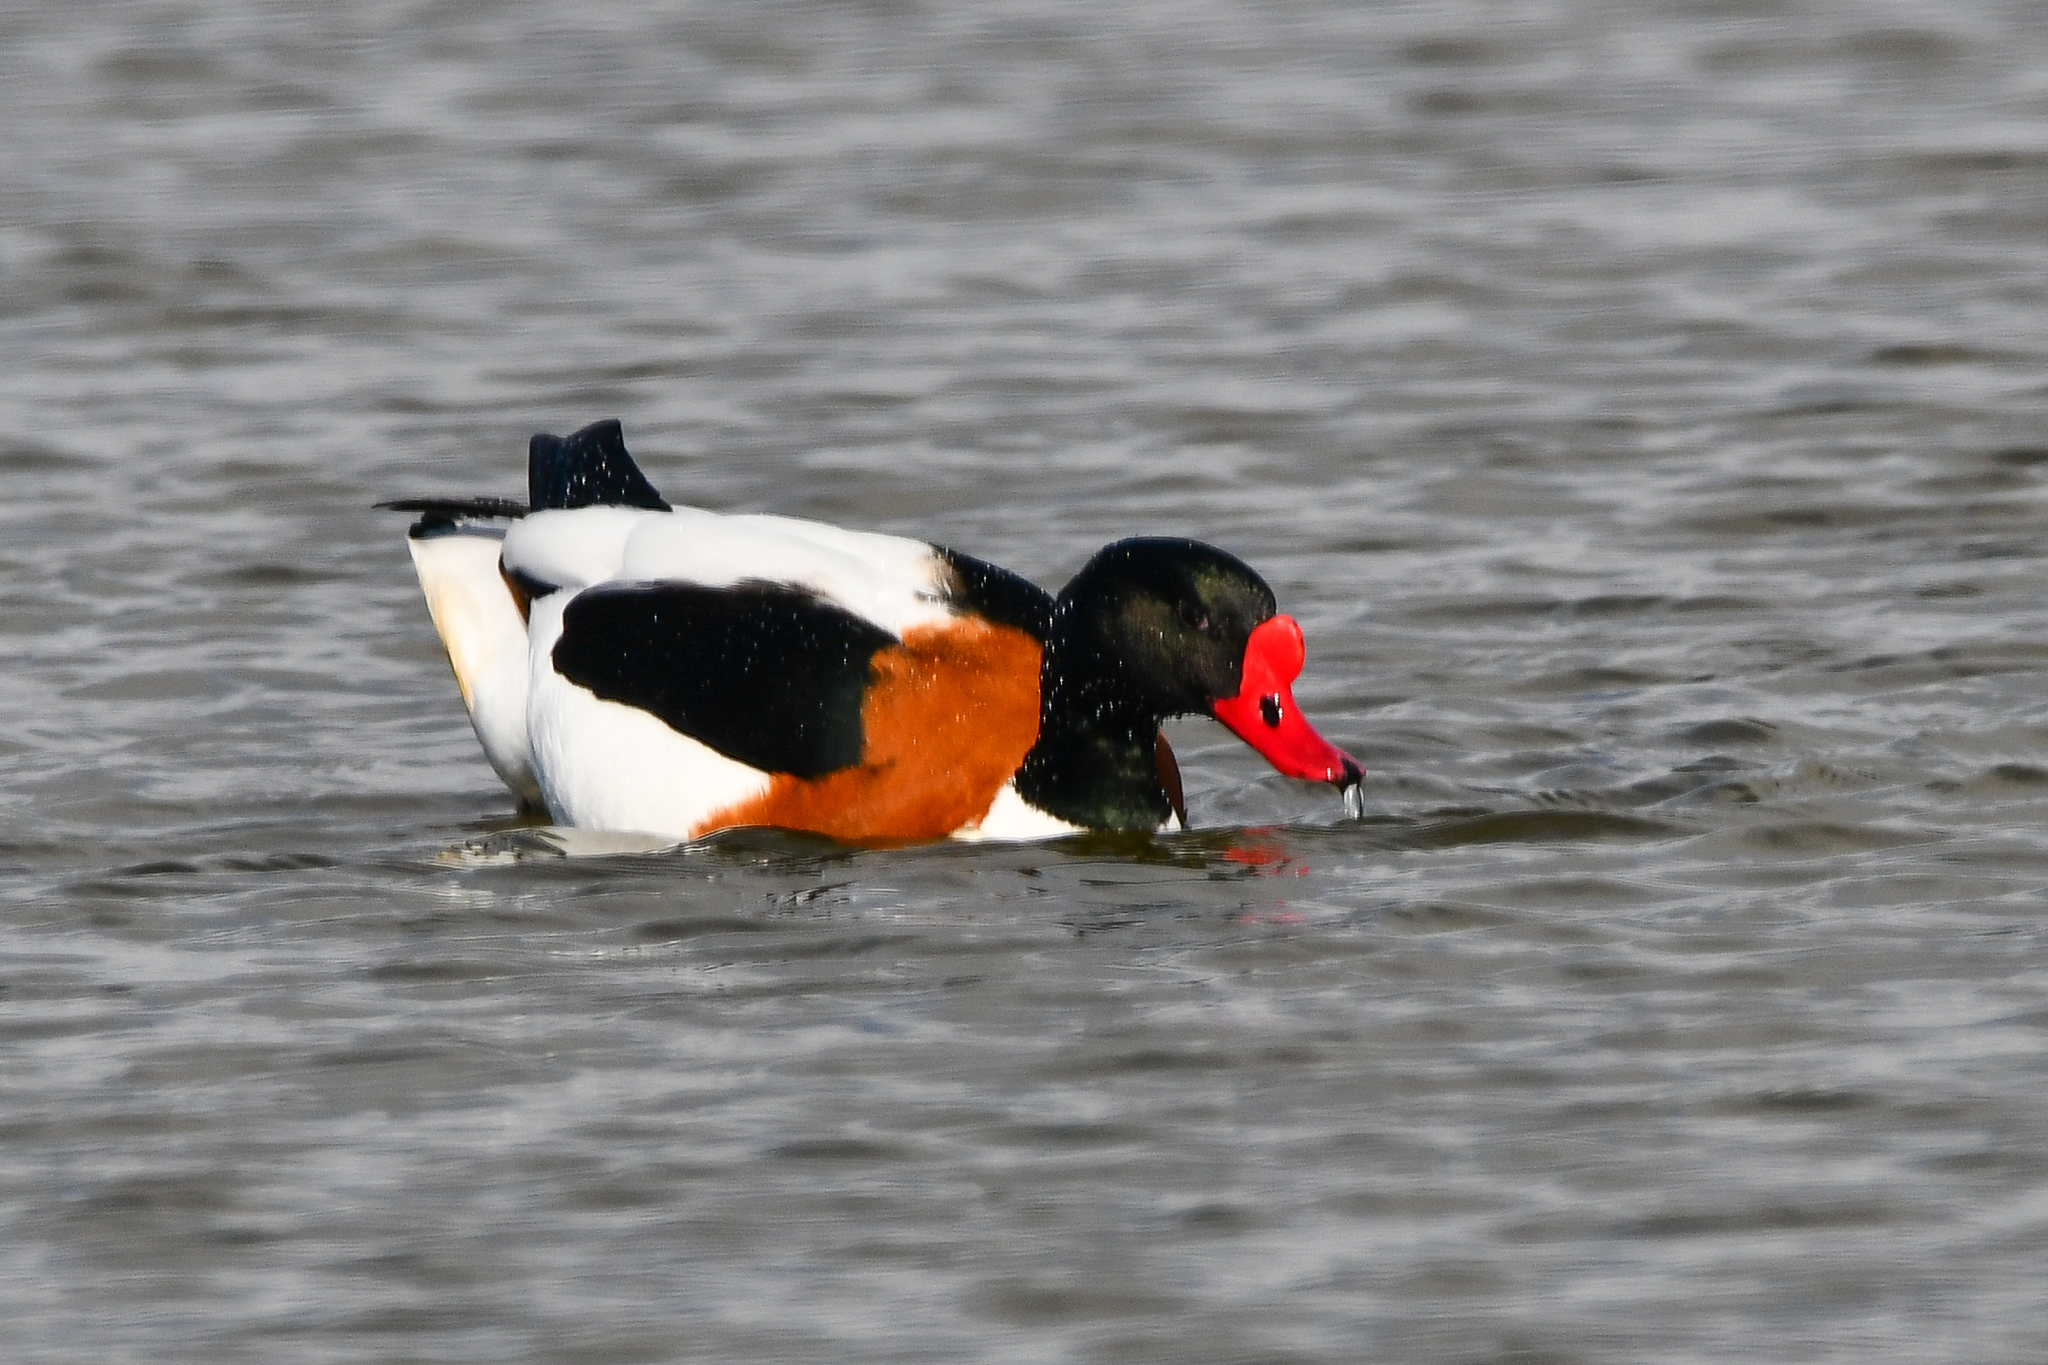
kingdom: Animalia
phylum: Chordata
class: Aves
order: Anseriformes
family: Anatidae
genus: Tadorna
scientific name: Tadorna tadorna
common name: Common shelduck
